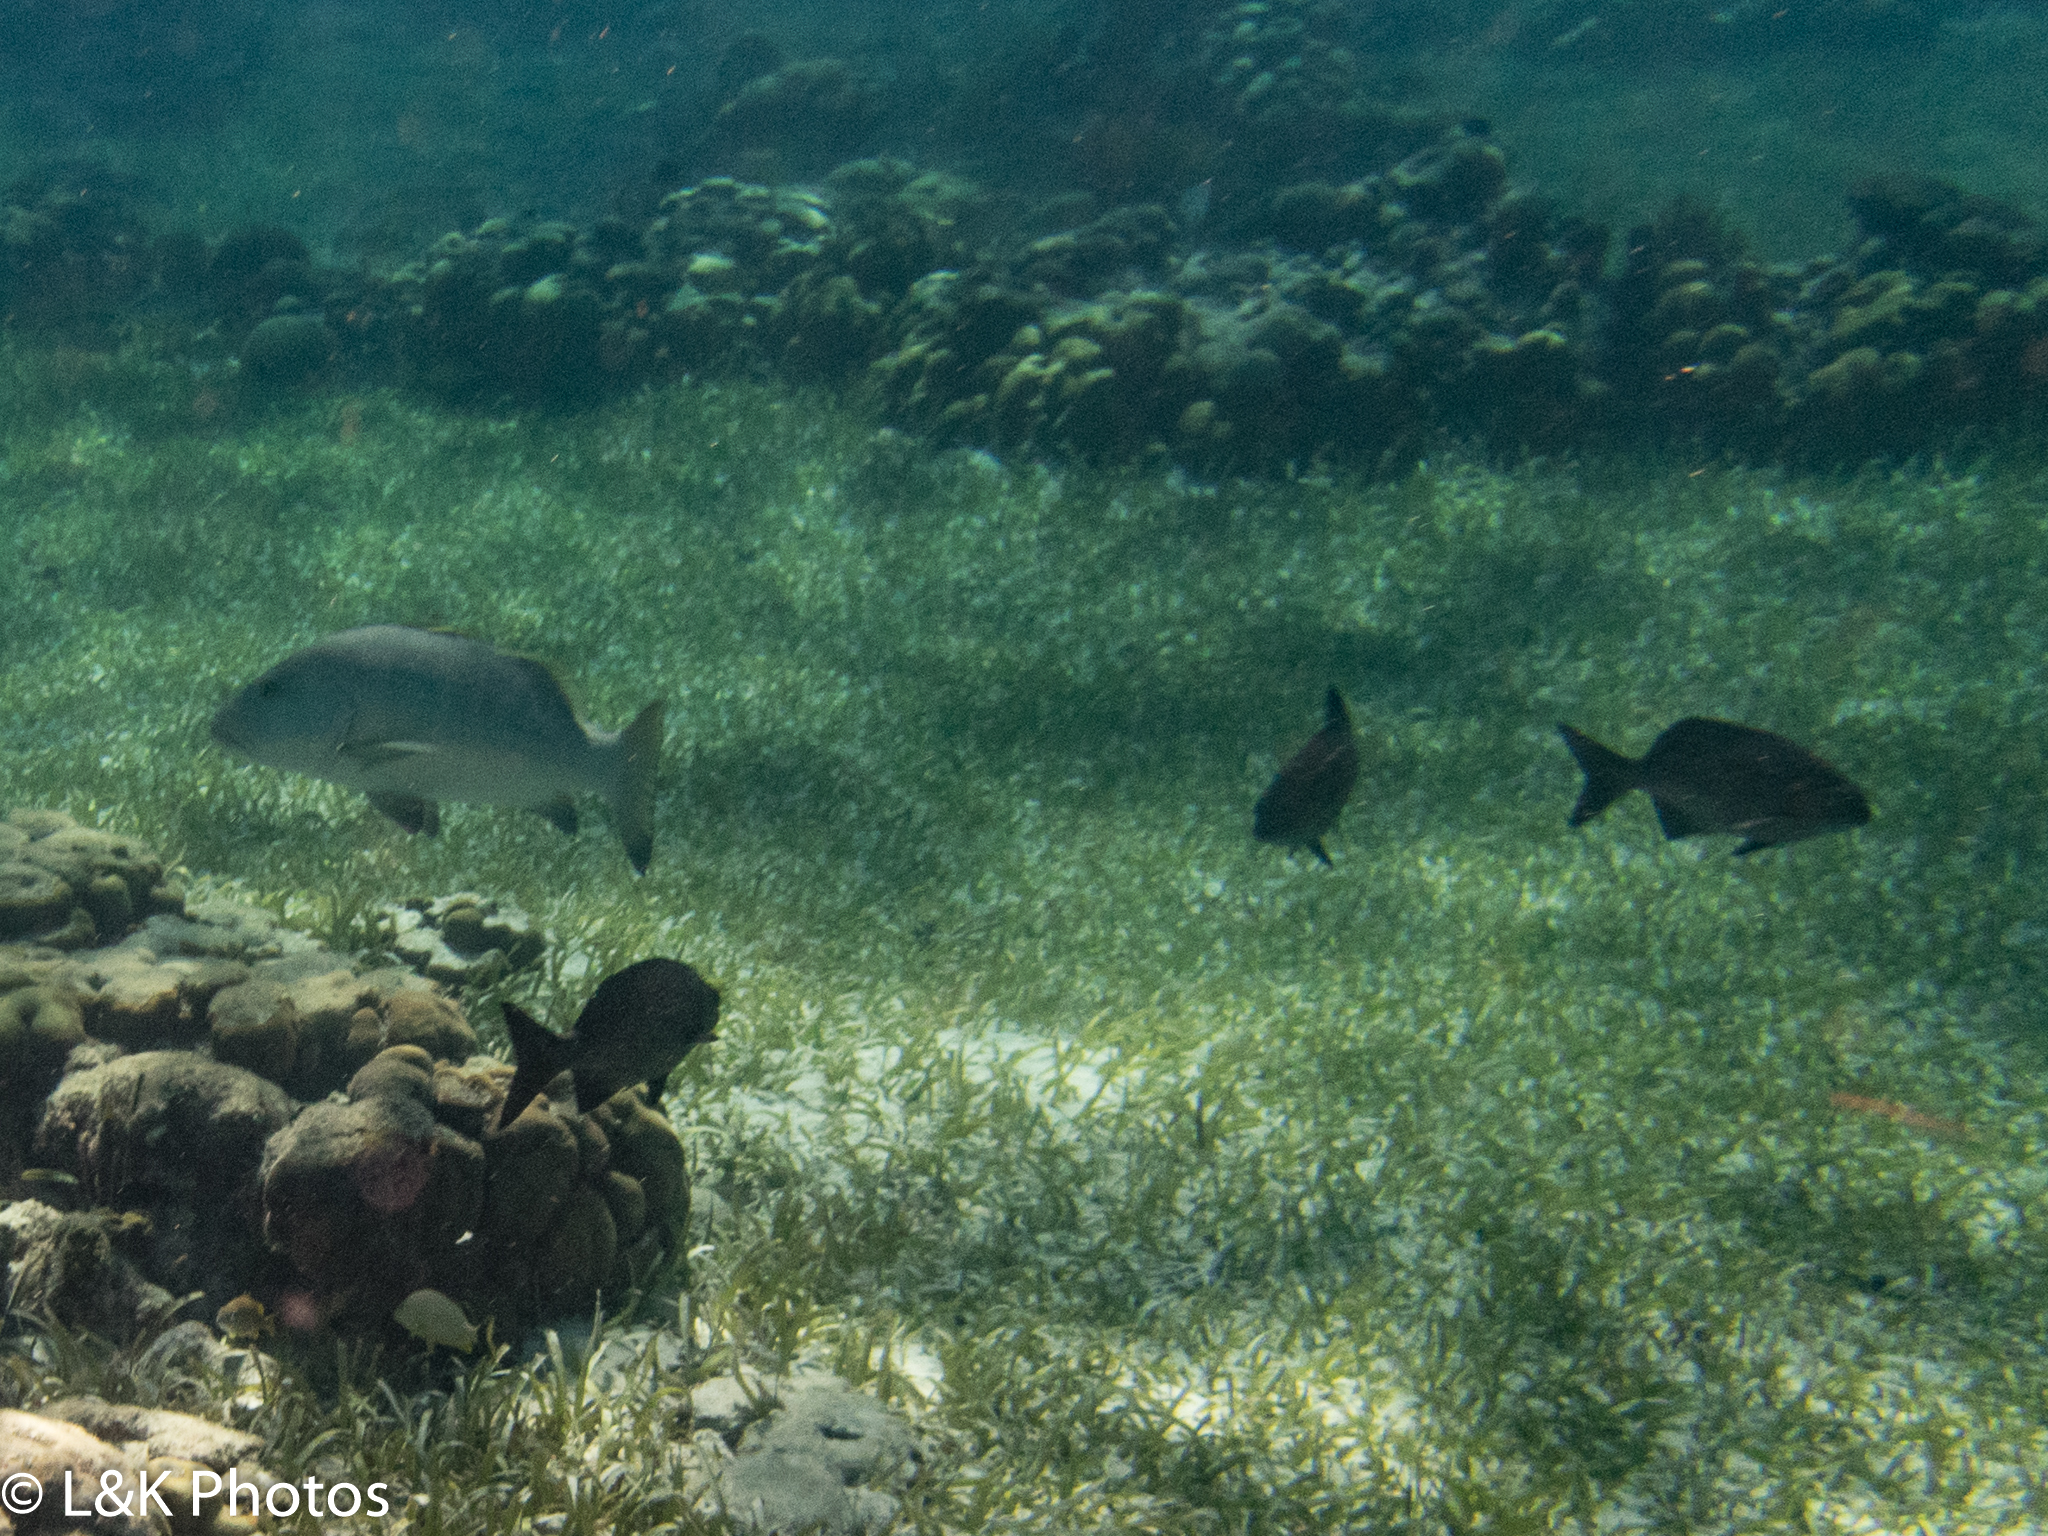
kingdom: Animalia
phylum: Chordata
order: Perciformes
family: Lutjanidae
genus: Lutjanus
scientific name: Lutjanus cyanopterus
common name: Cubera snapper
